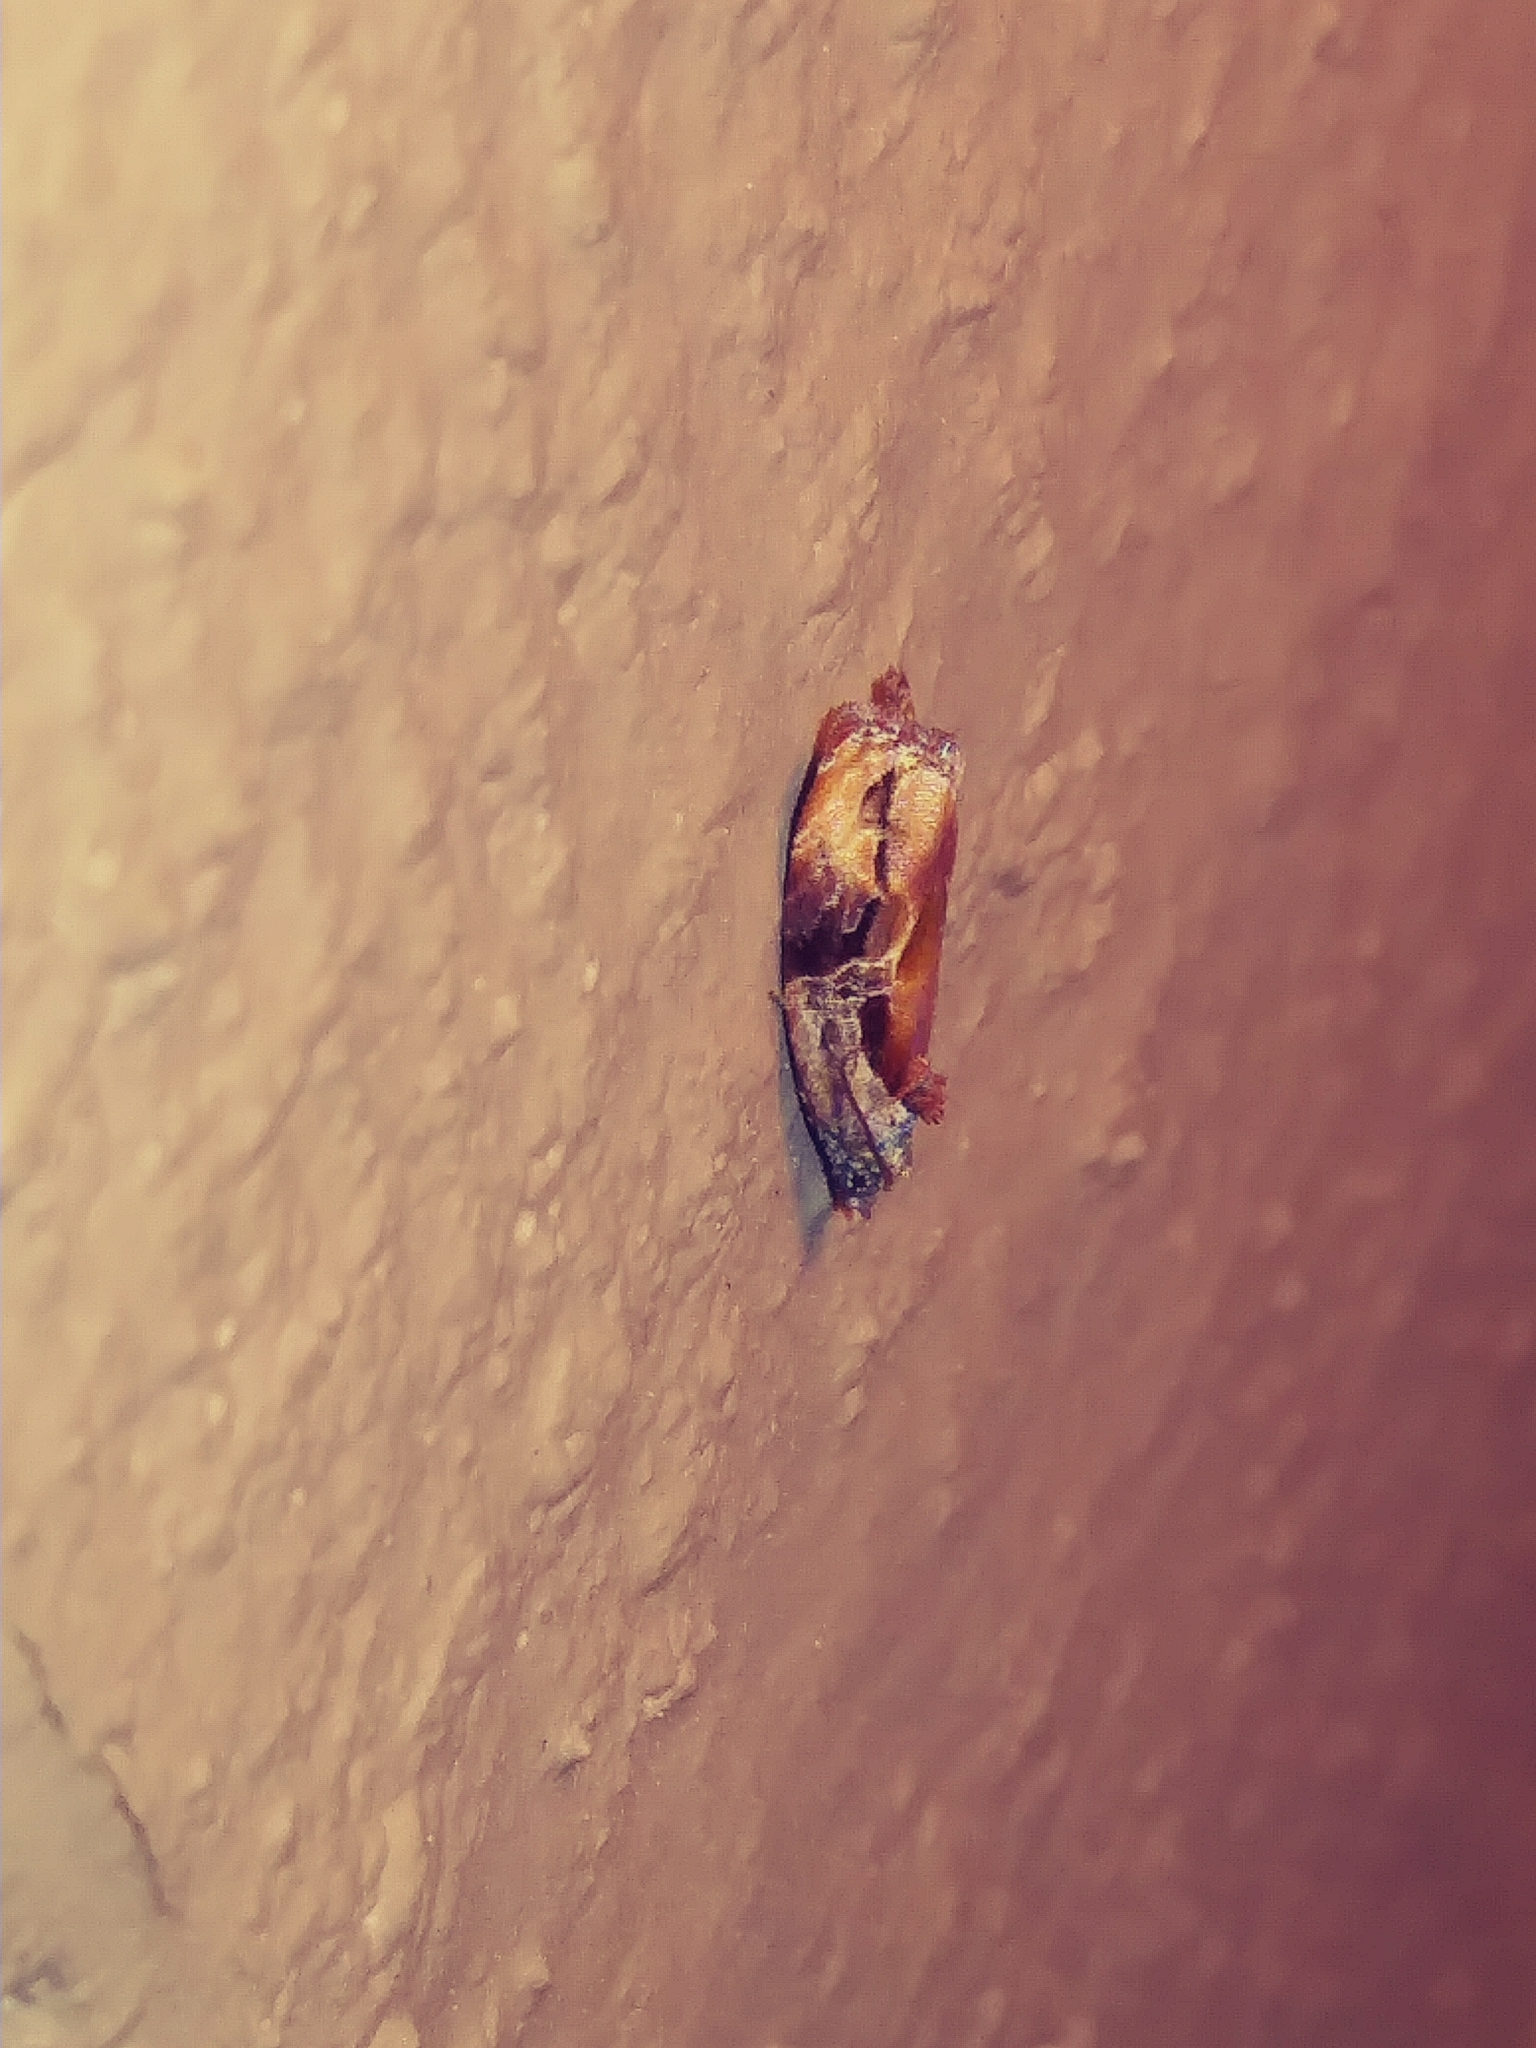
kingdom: Animalia
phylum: Arthropoda
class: Insecta
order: Lepidoptera
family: Tortricidae
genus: Zomaria
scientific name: Zomaria interruptolineana
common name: Broken-lined zomaria moth
